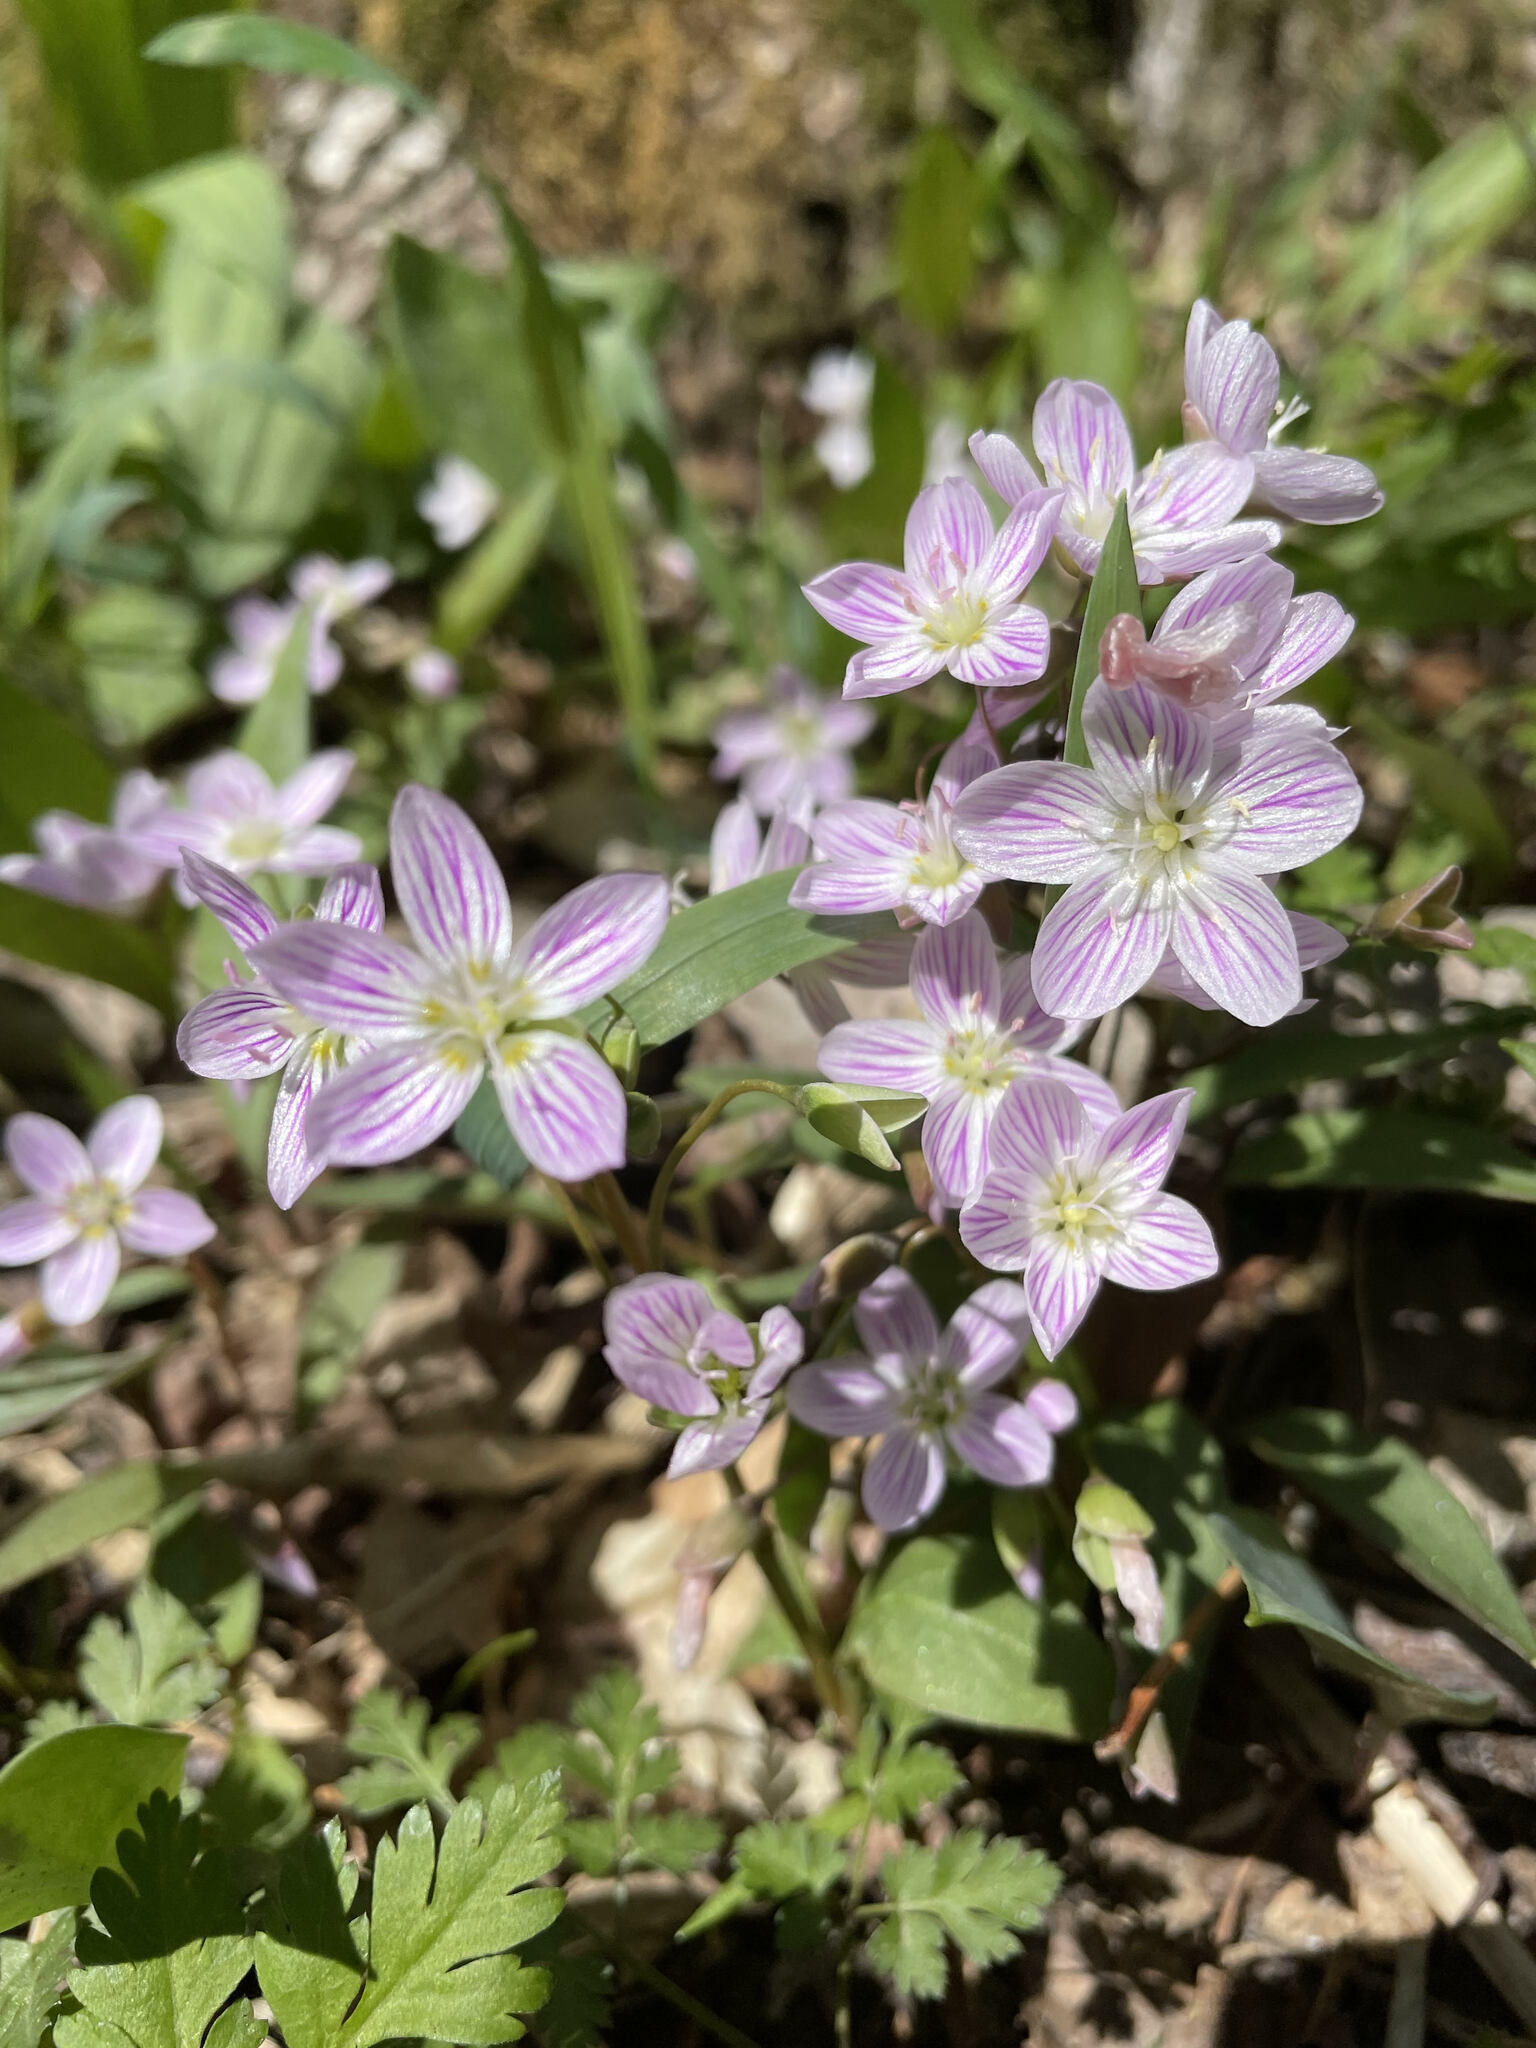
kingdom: Plantae
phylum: Tracheophyta
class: Magnoliopsida
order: Caryophyllales
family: Montiaceae
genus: Claytonia
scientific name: Claytonia caroliniana
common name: Carolina spring beauty
